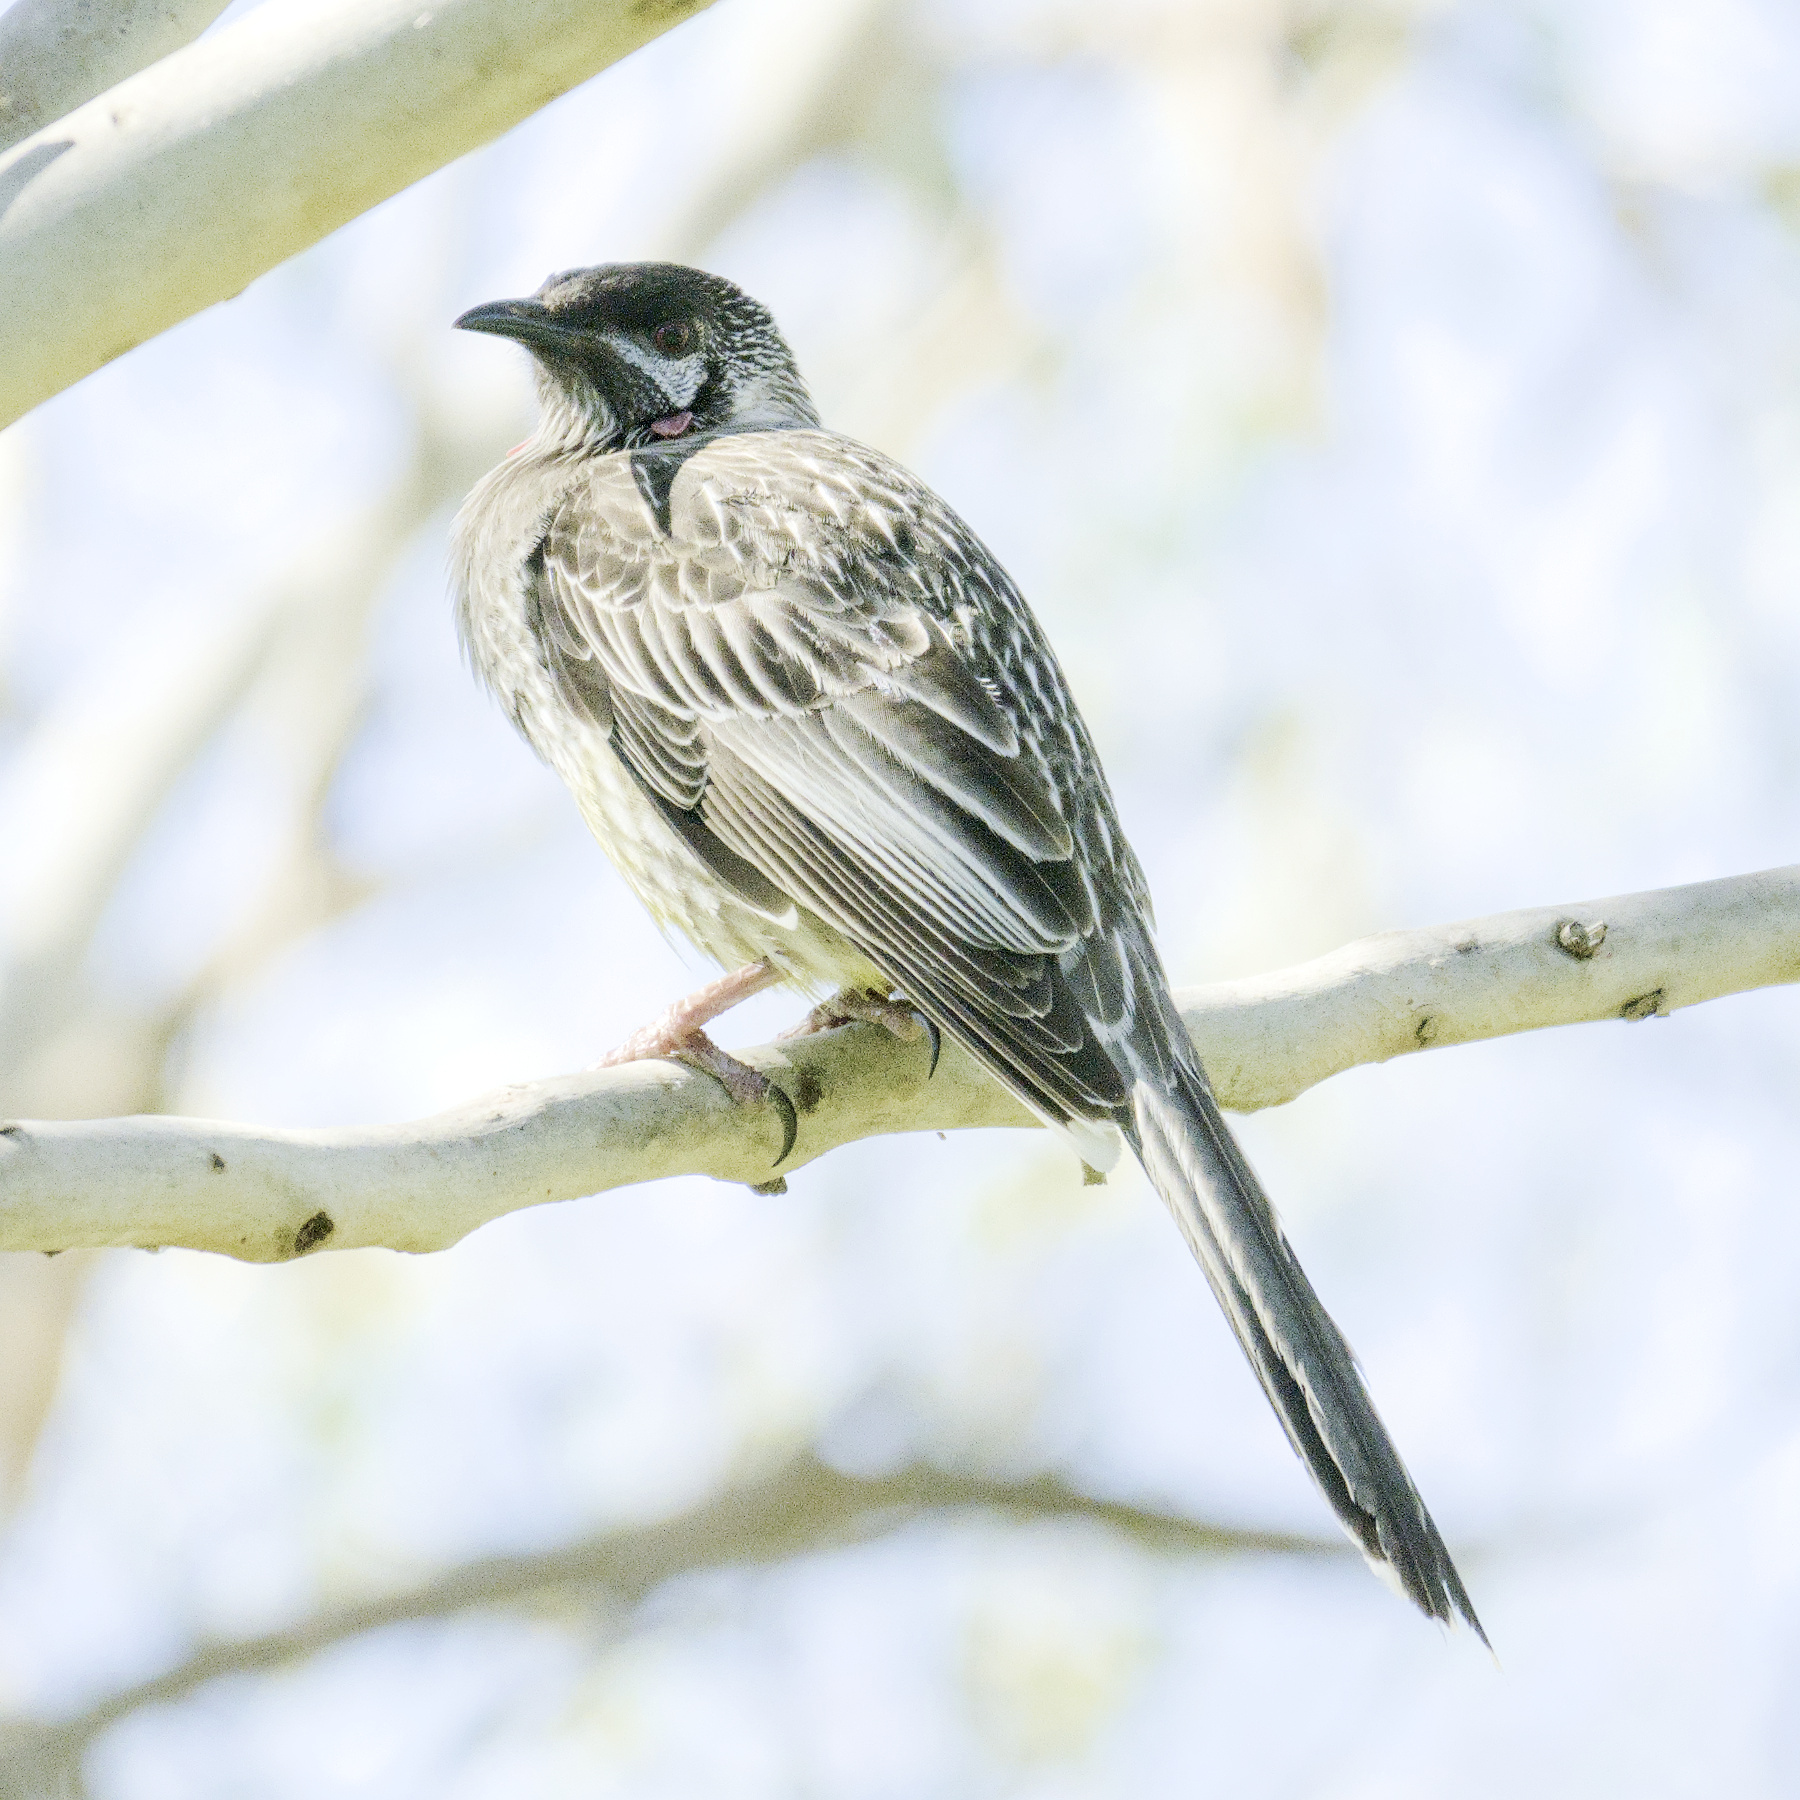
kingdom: Animalia
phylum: Chordata
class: Aves
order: Passeriformes
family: Meliphagidae
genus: Anthochaera
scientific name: Anthochaera carunculata
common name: Red wattlebird
